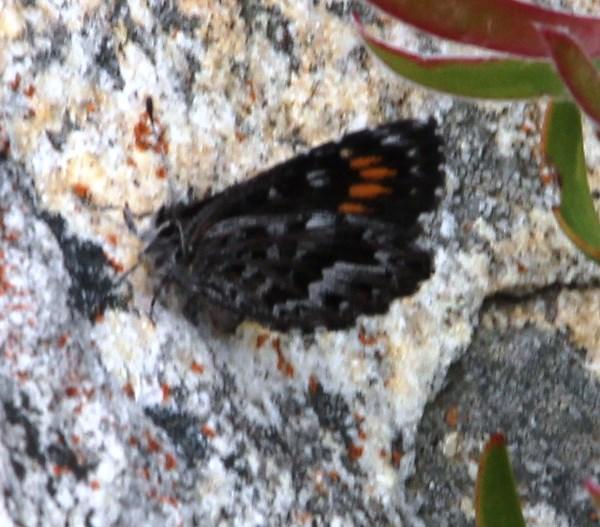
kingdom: Animalia
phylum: Arthropoda
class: Insecta
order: Lepidoptera
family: Lycaenidae
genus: Durbaniopsis
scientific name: Durbaniopsis saga
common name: Boland rocksitter
